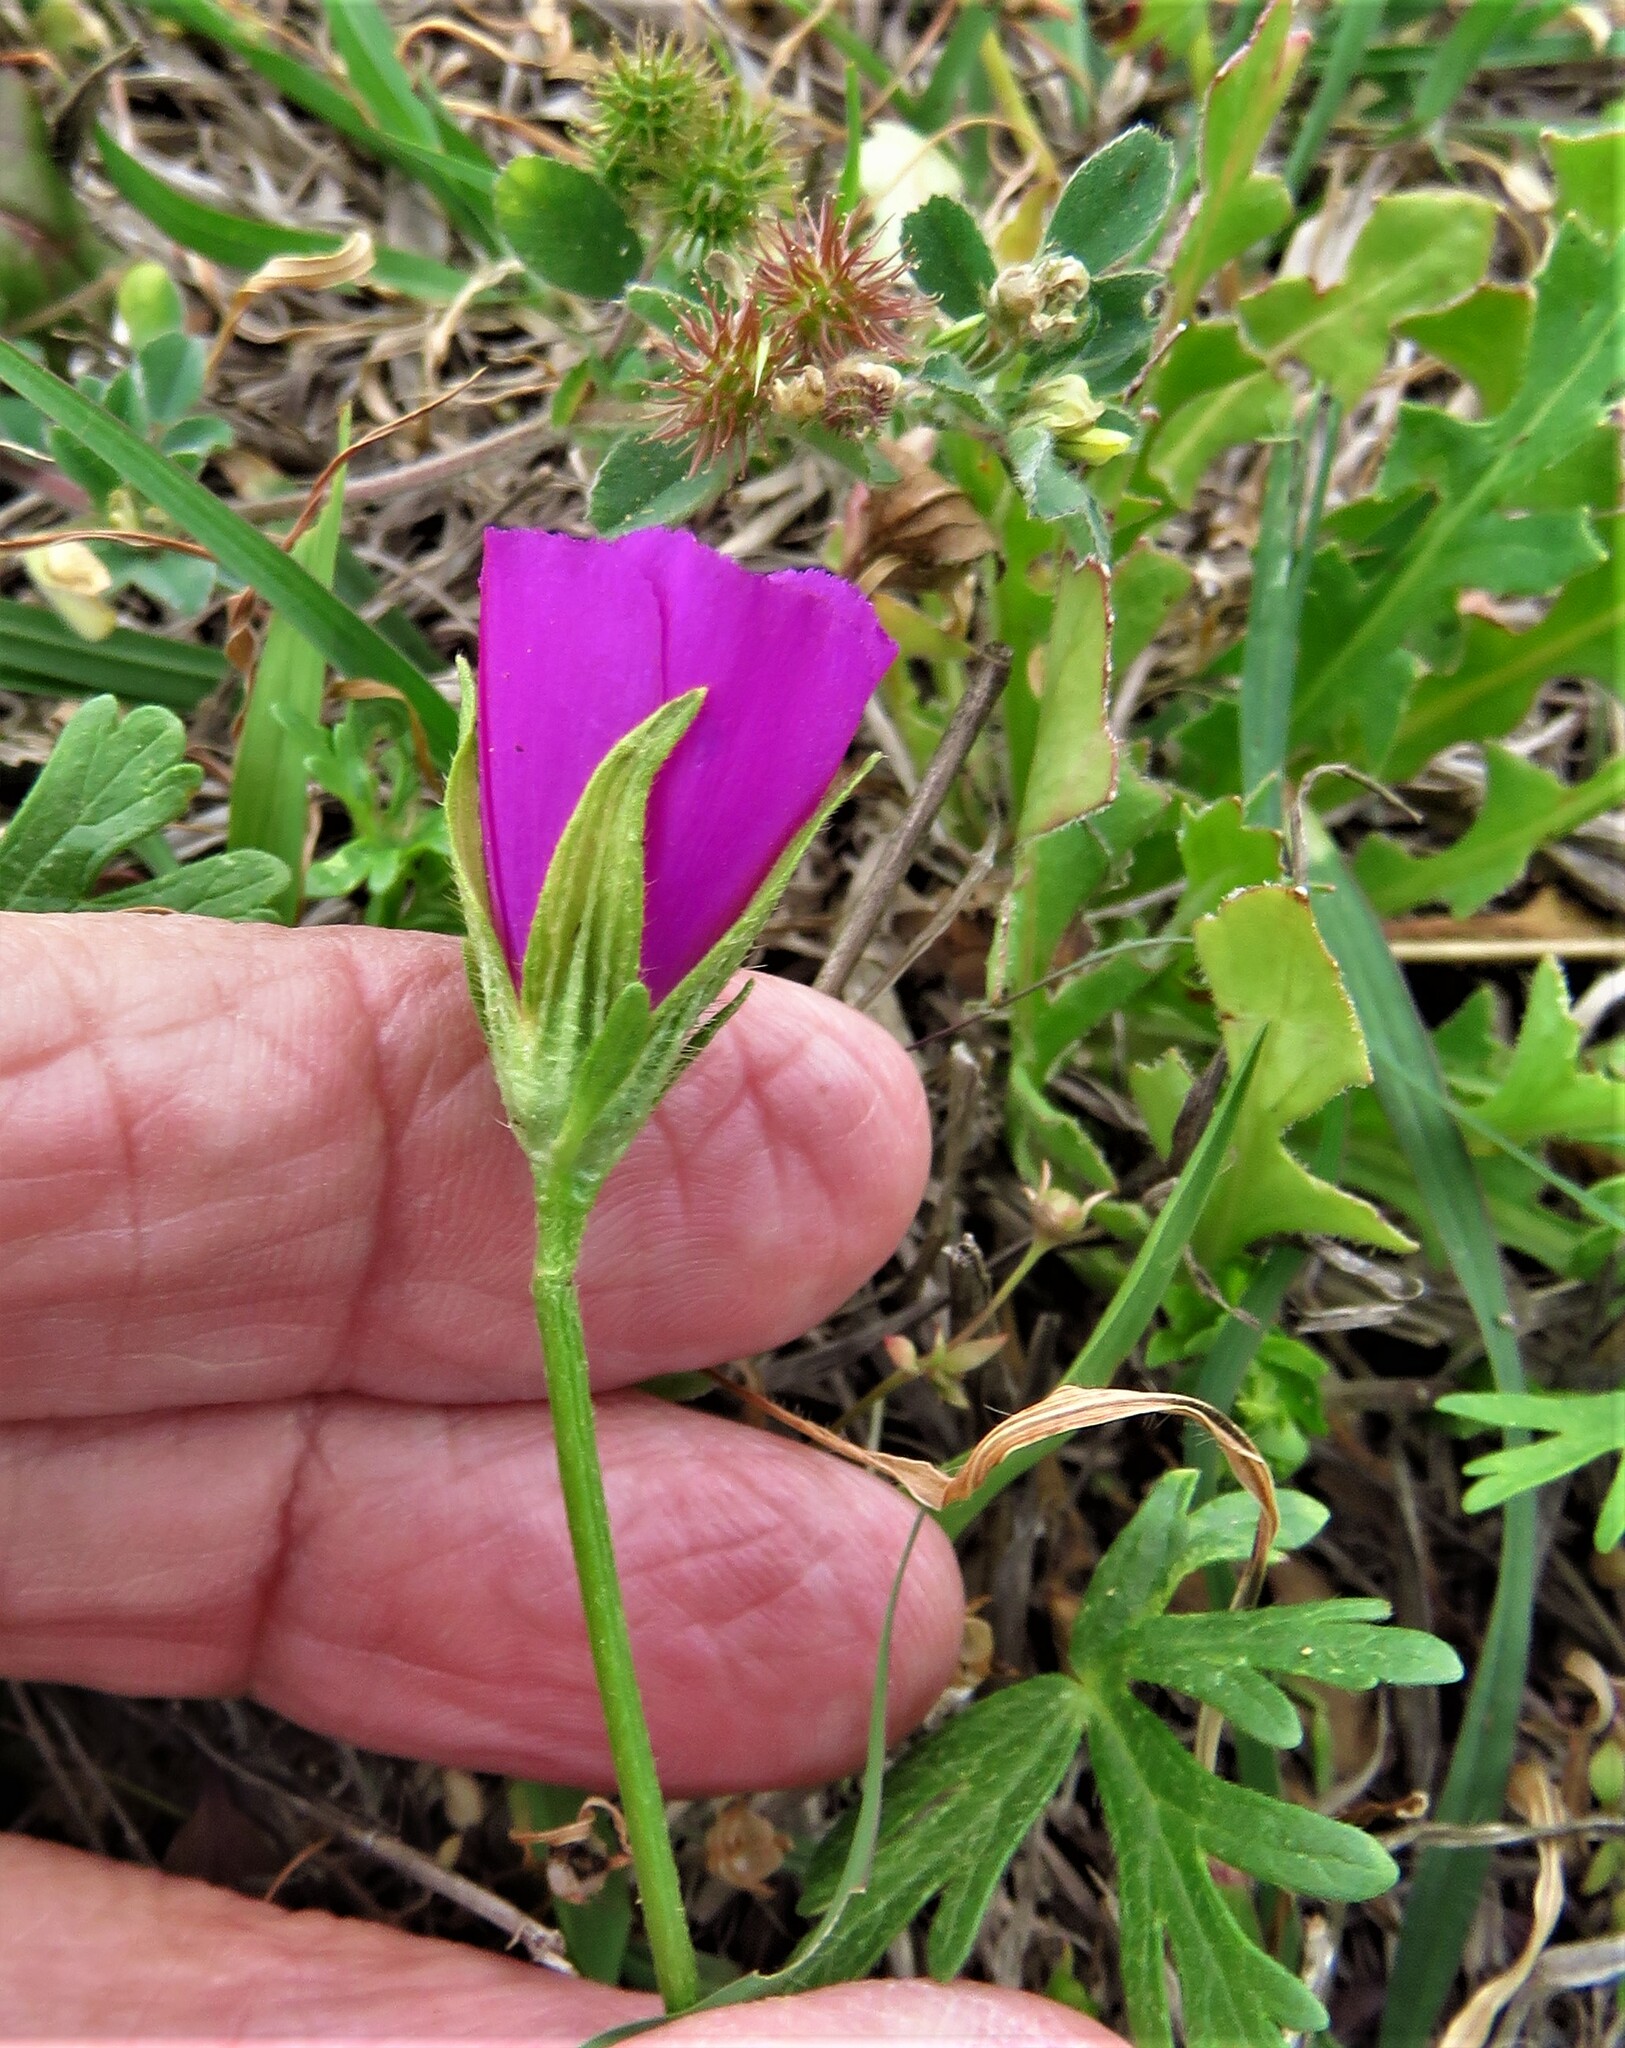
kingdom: Plantae
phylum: Tracheophyta
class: Magnoliopsida
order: Malvales
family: Malvaceae
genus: Callirhoe
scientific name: Callirhoe involucrata
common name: Purple poppy-mallow
